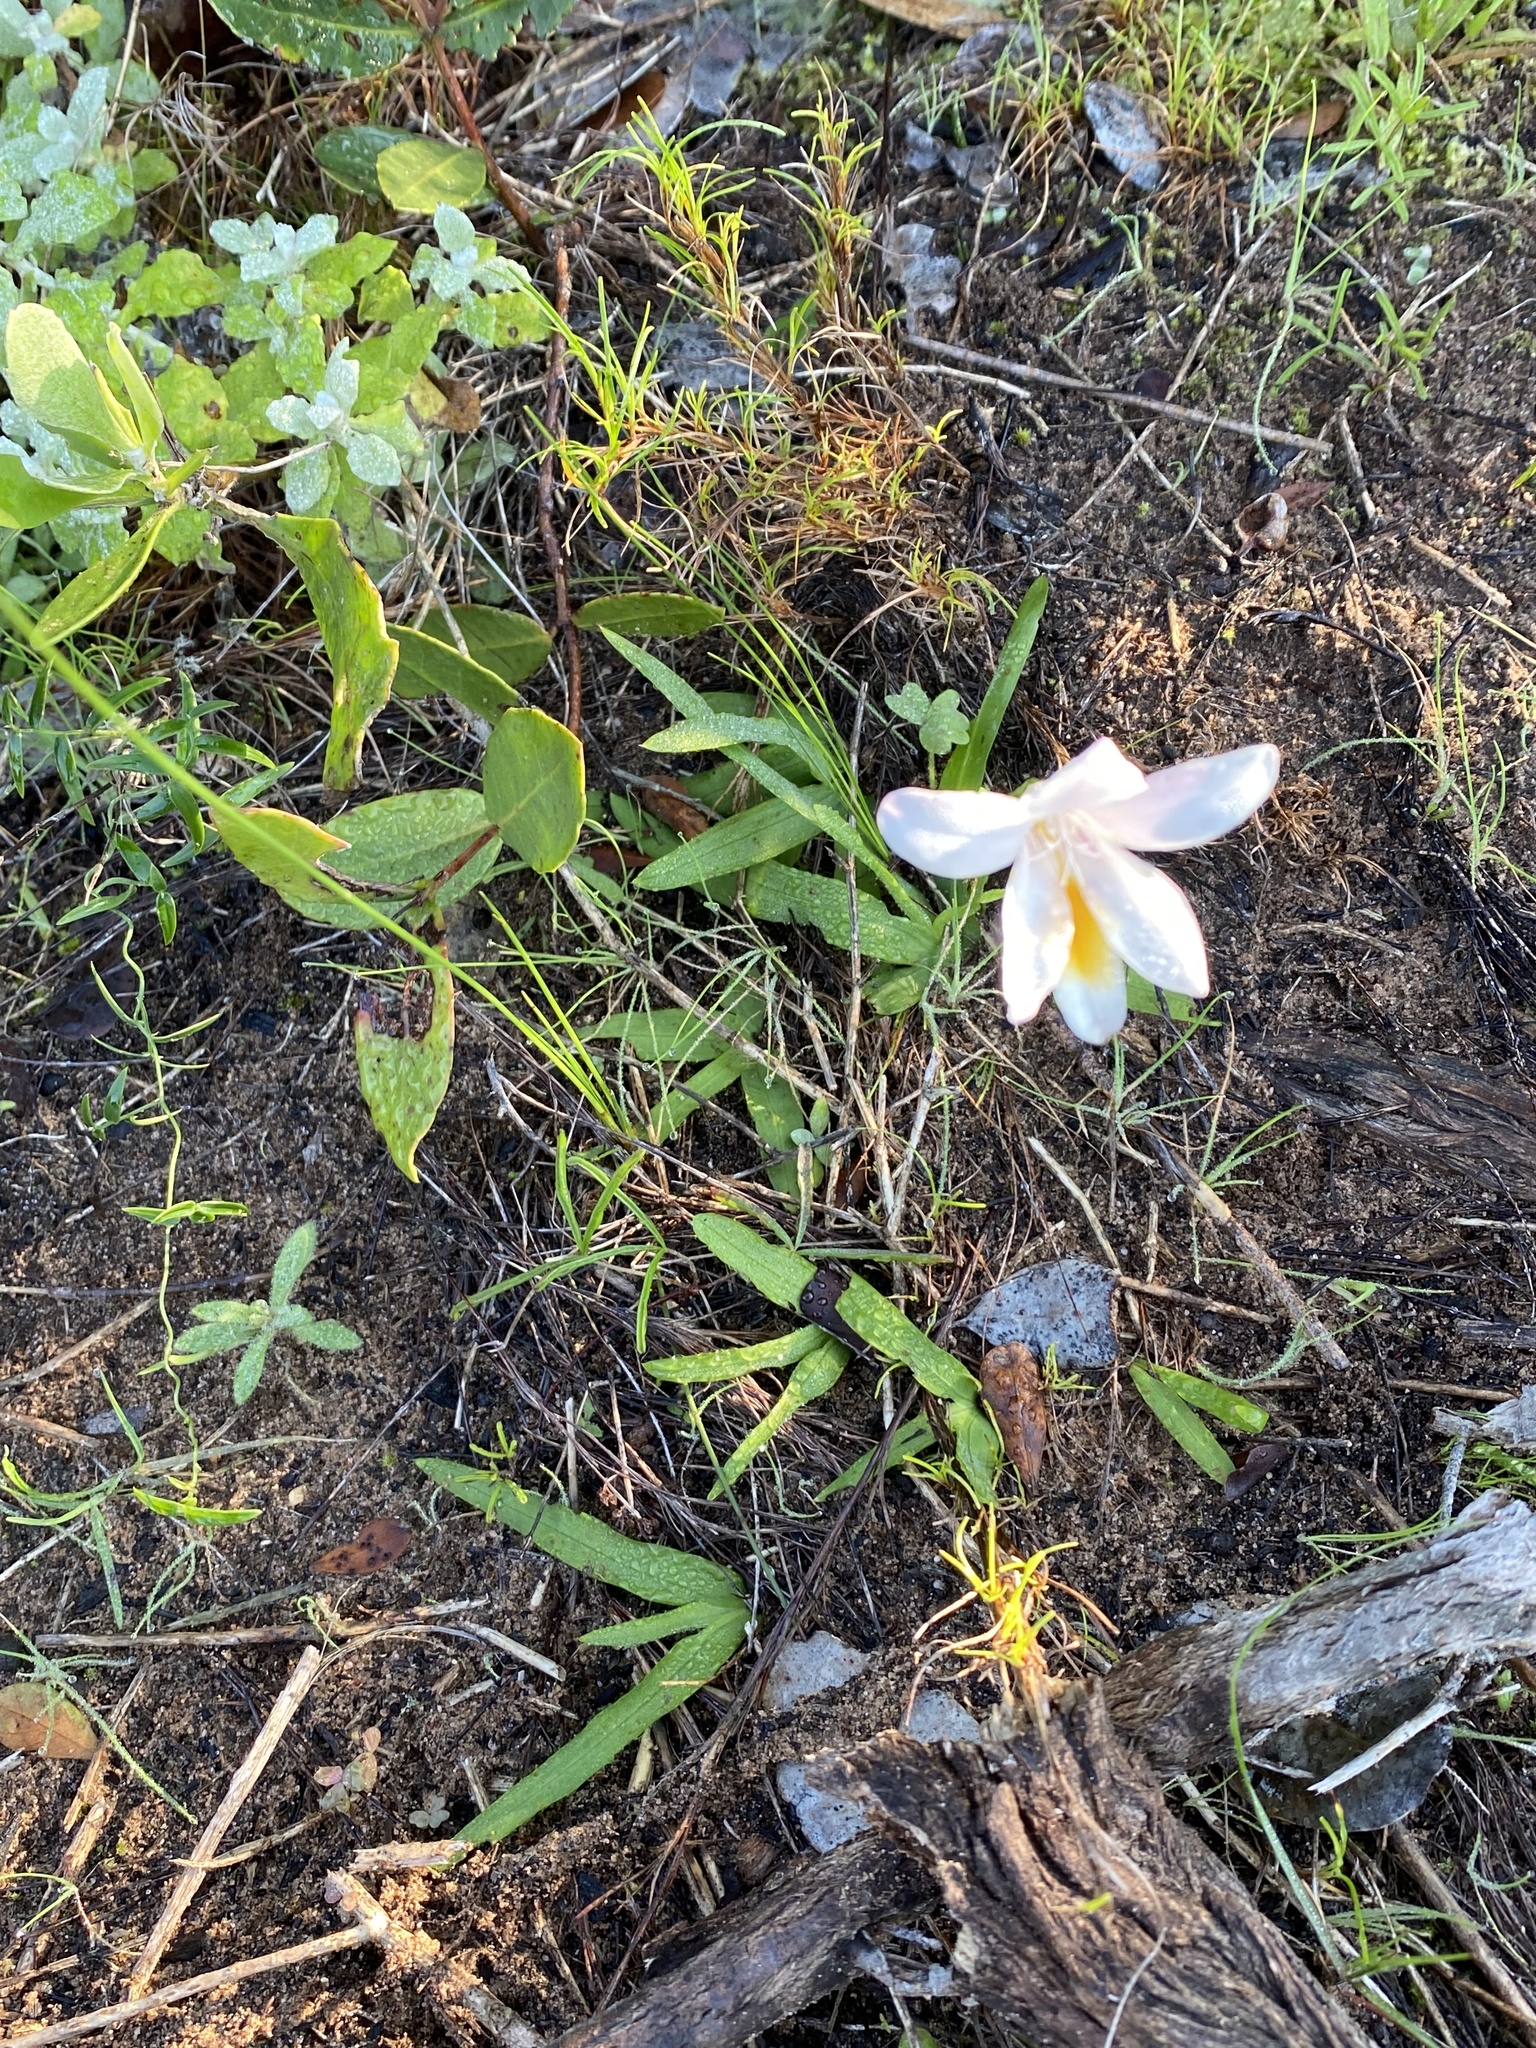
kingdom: Plantae
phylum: Tracheophyta
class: Liliopsida
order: Asparagales
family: Iridaceae
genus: Freesia
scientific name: Freesia leichtlinii
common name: Freesia
